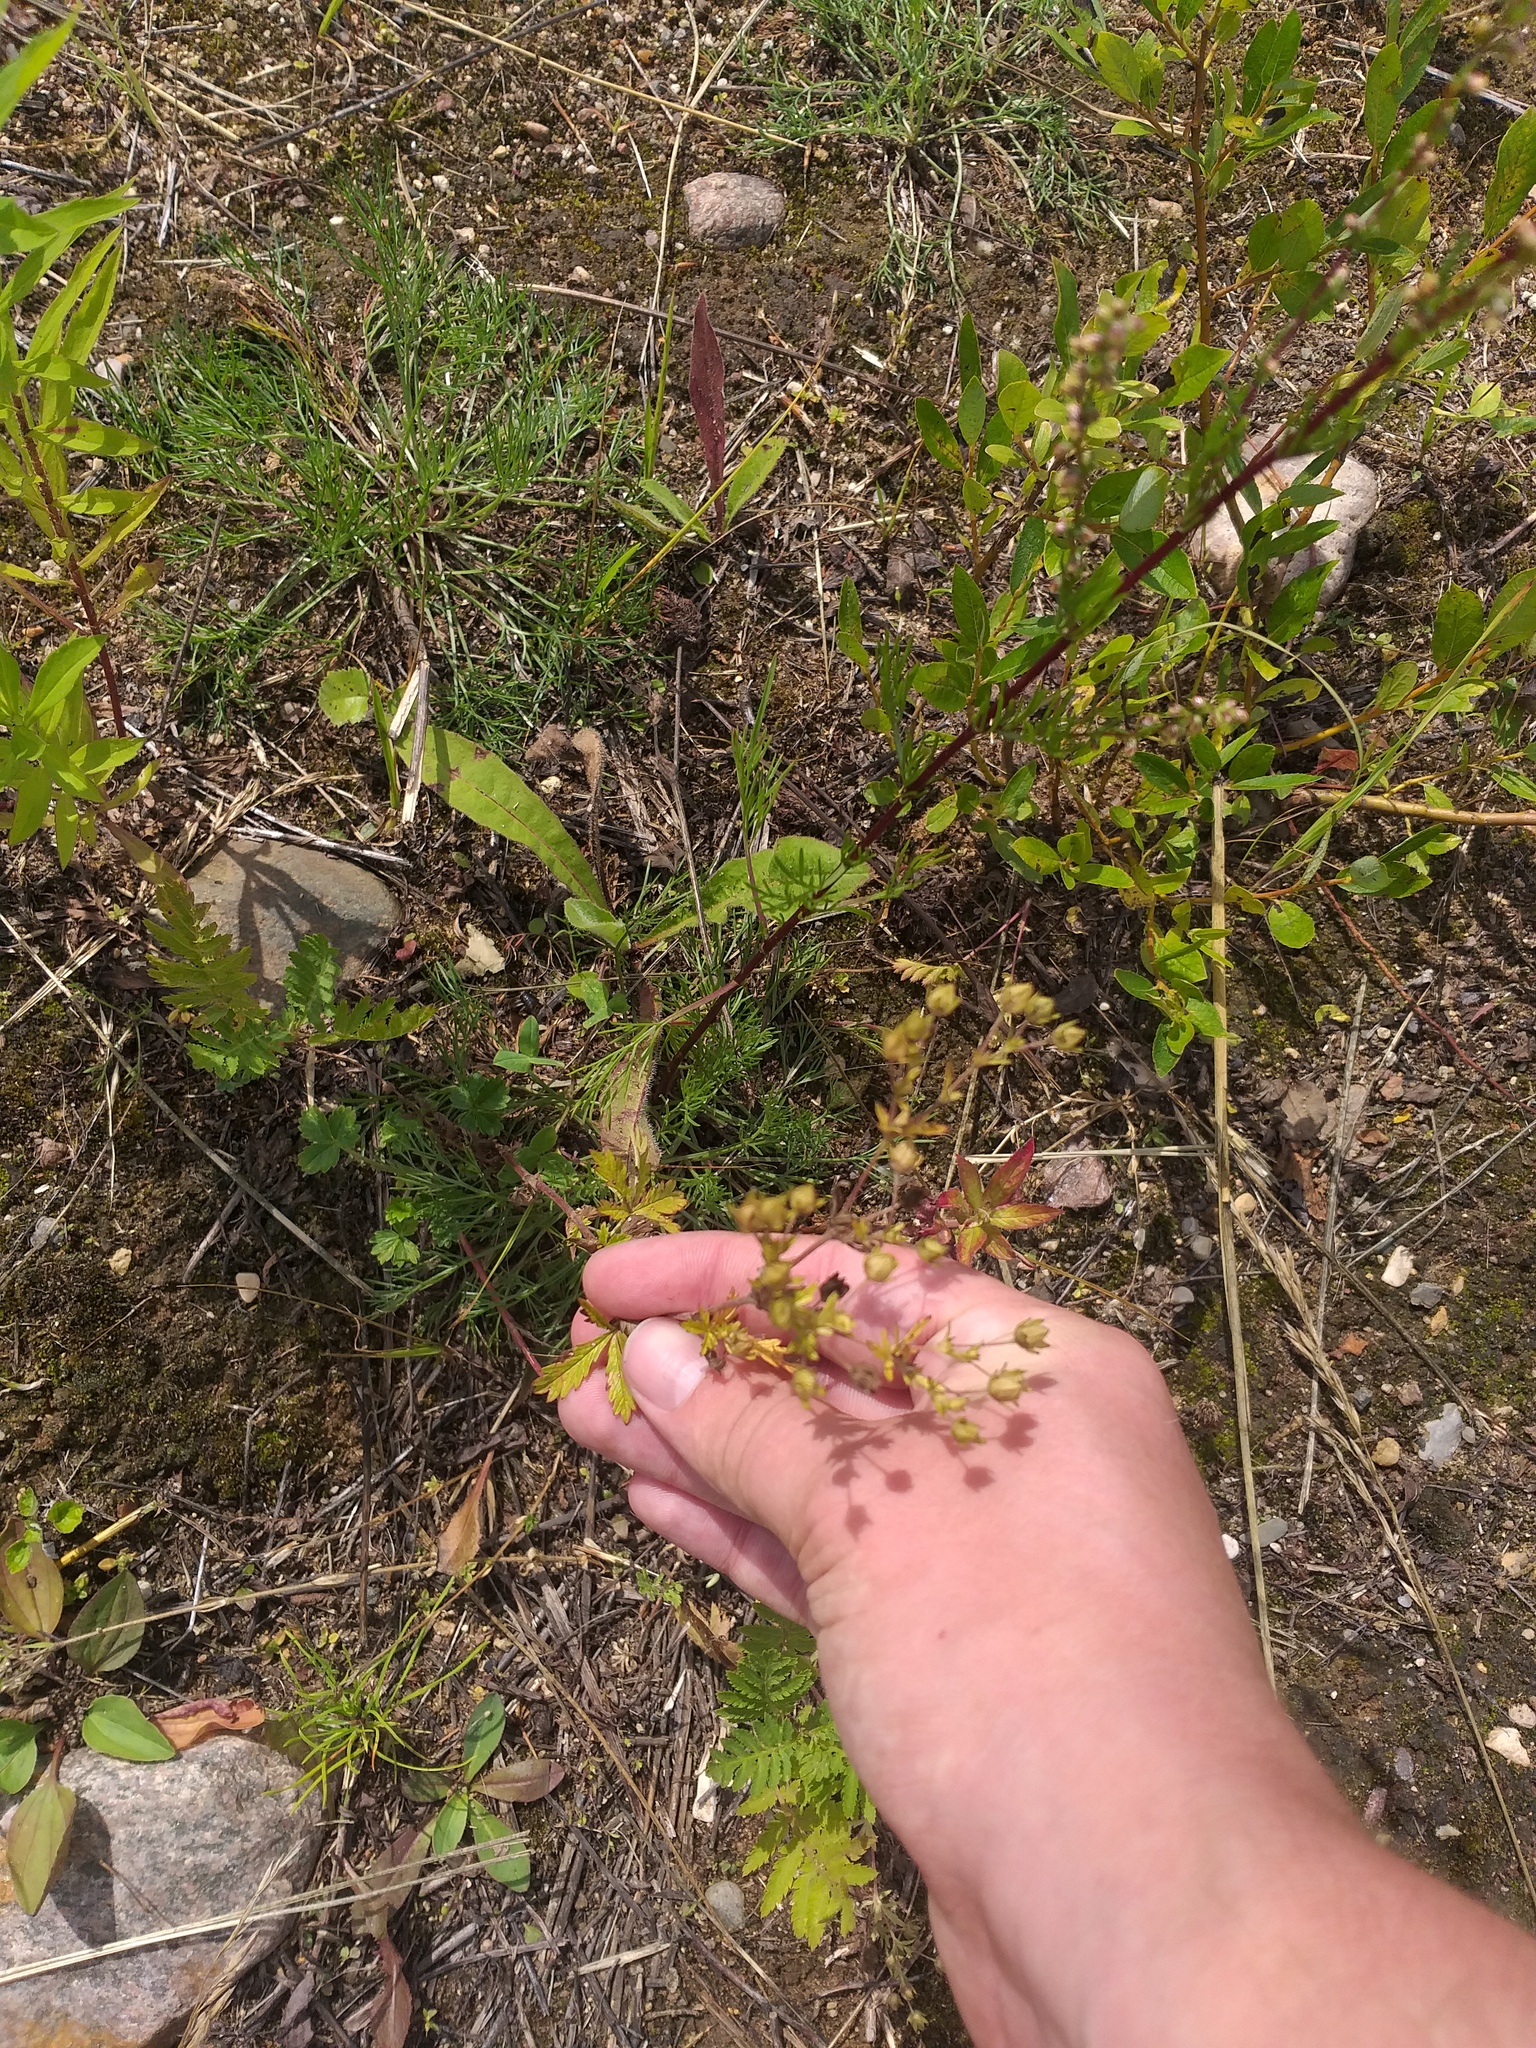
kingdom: Plantae
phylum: Tracheophyta
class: Magnoliopsida
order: Rosales
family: Rosaceae
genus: Potentilla
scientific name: Potentilla intermedia
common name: Downy cinquefoil
